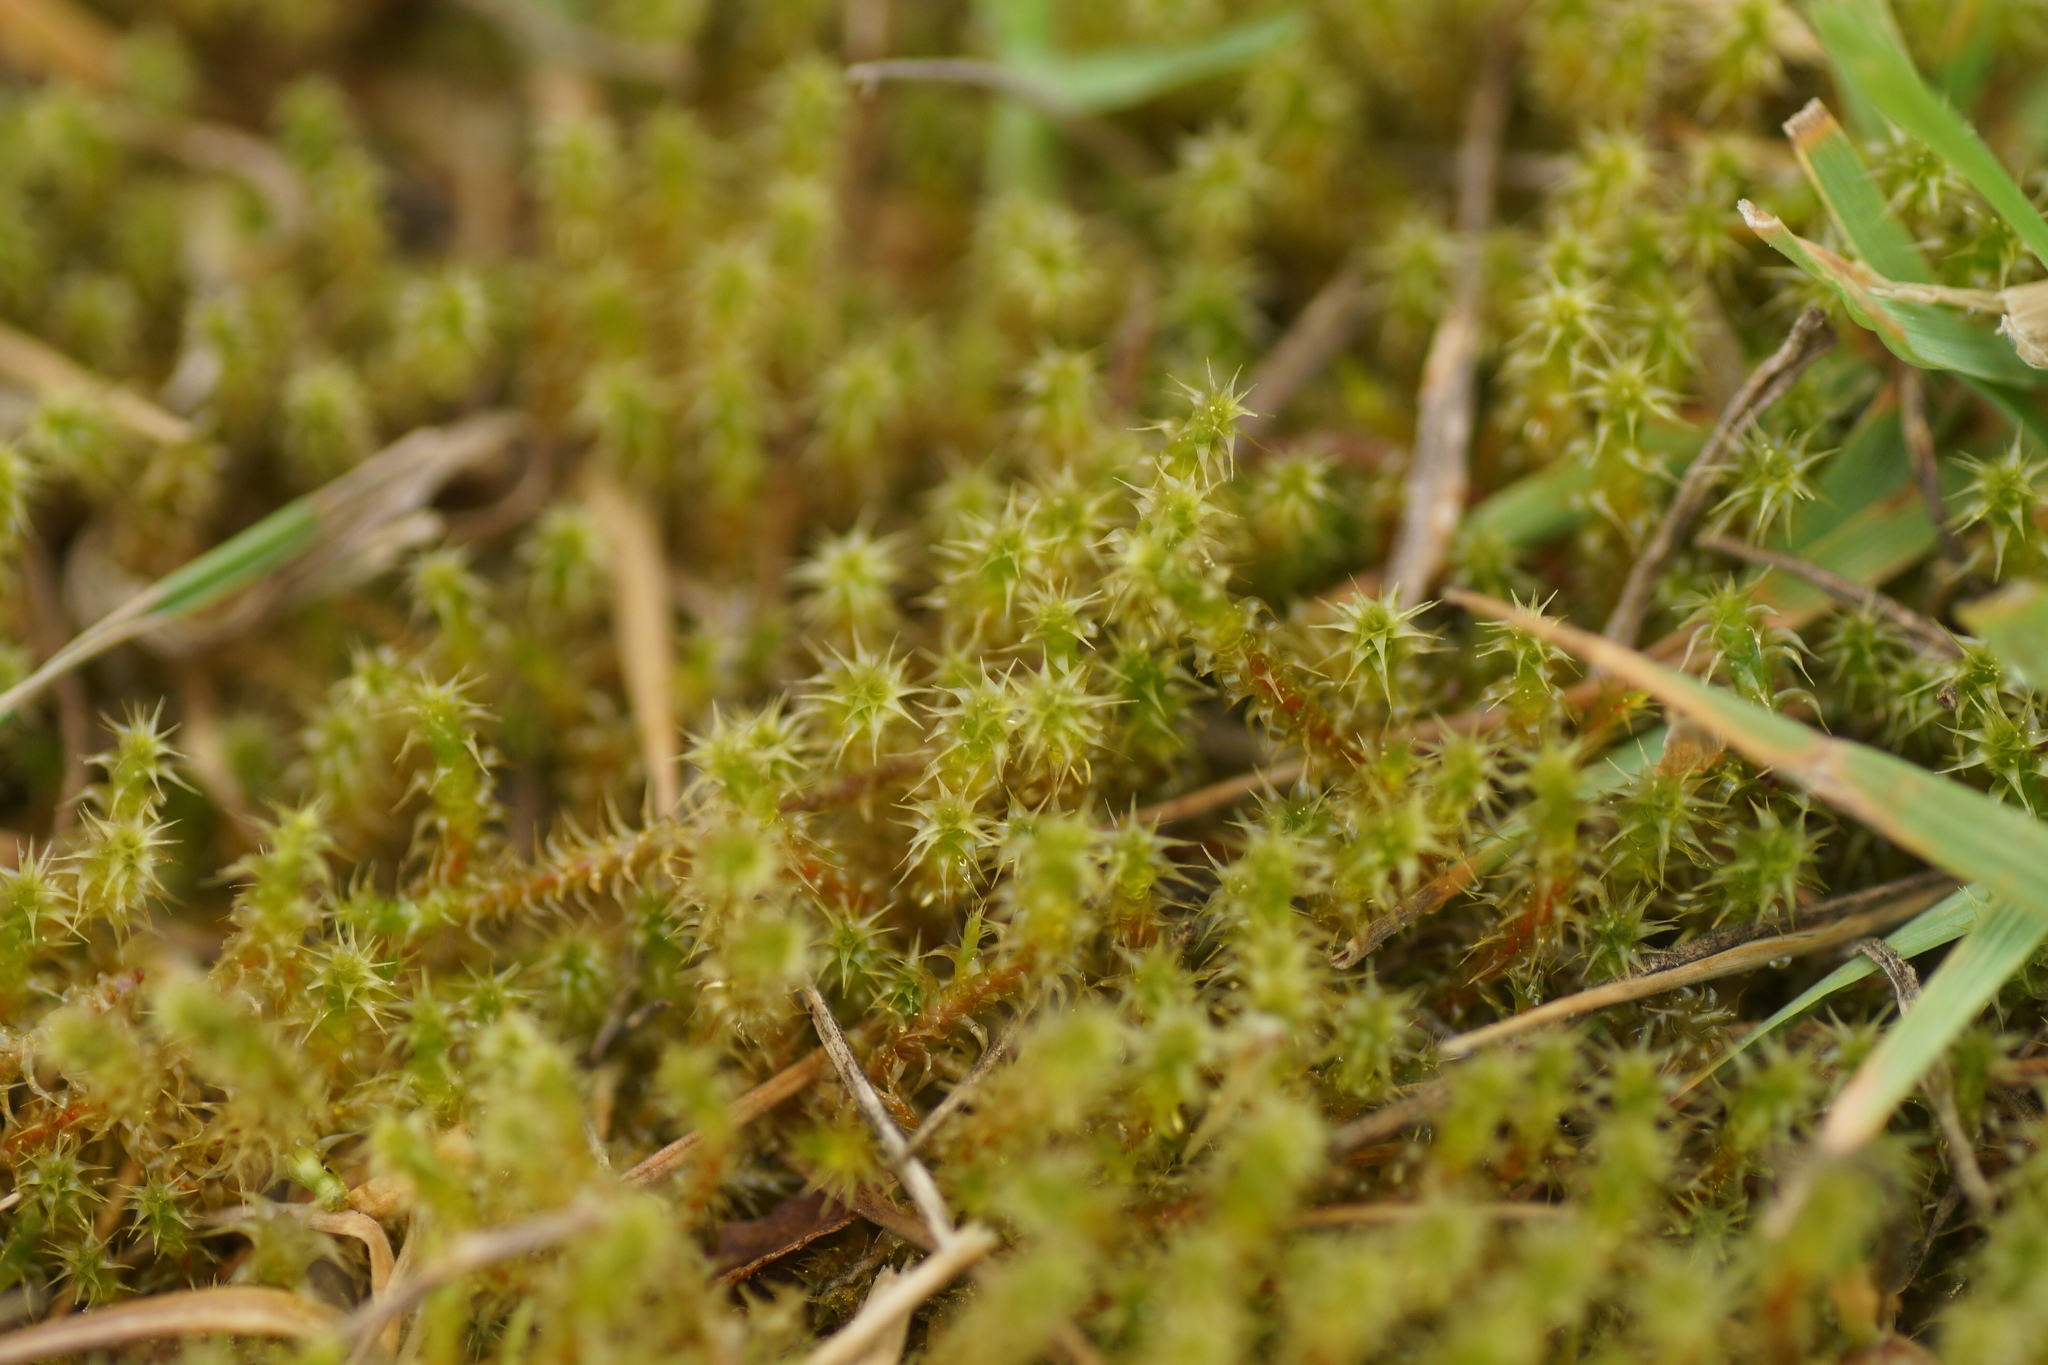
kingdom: Plantae
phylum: Bryophyta
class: Bryopsida
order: Hypnales
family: Hylocomiaceae
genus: Rhytidiadelphus
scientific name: Rhytidiadelphus squarrosus
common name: Springy turf-moss
